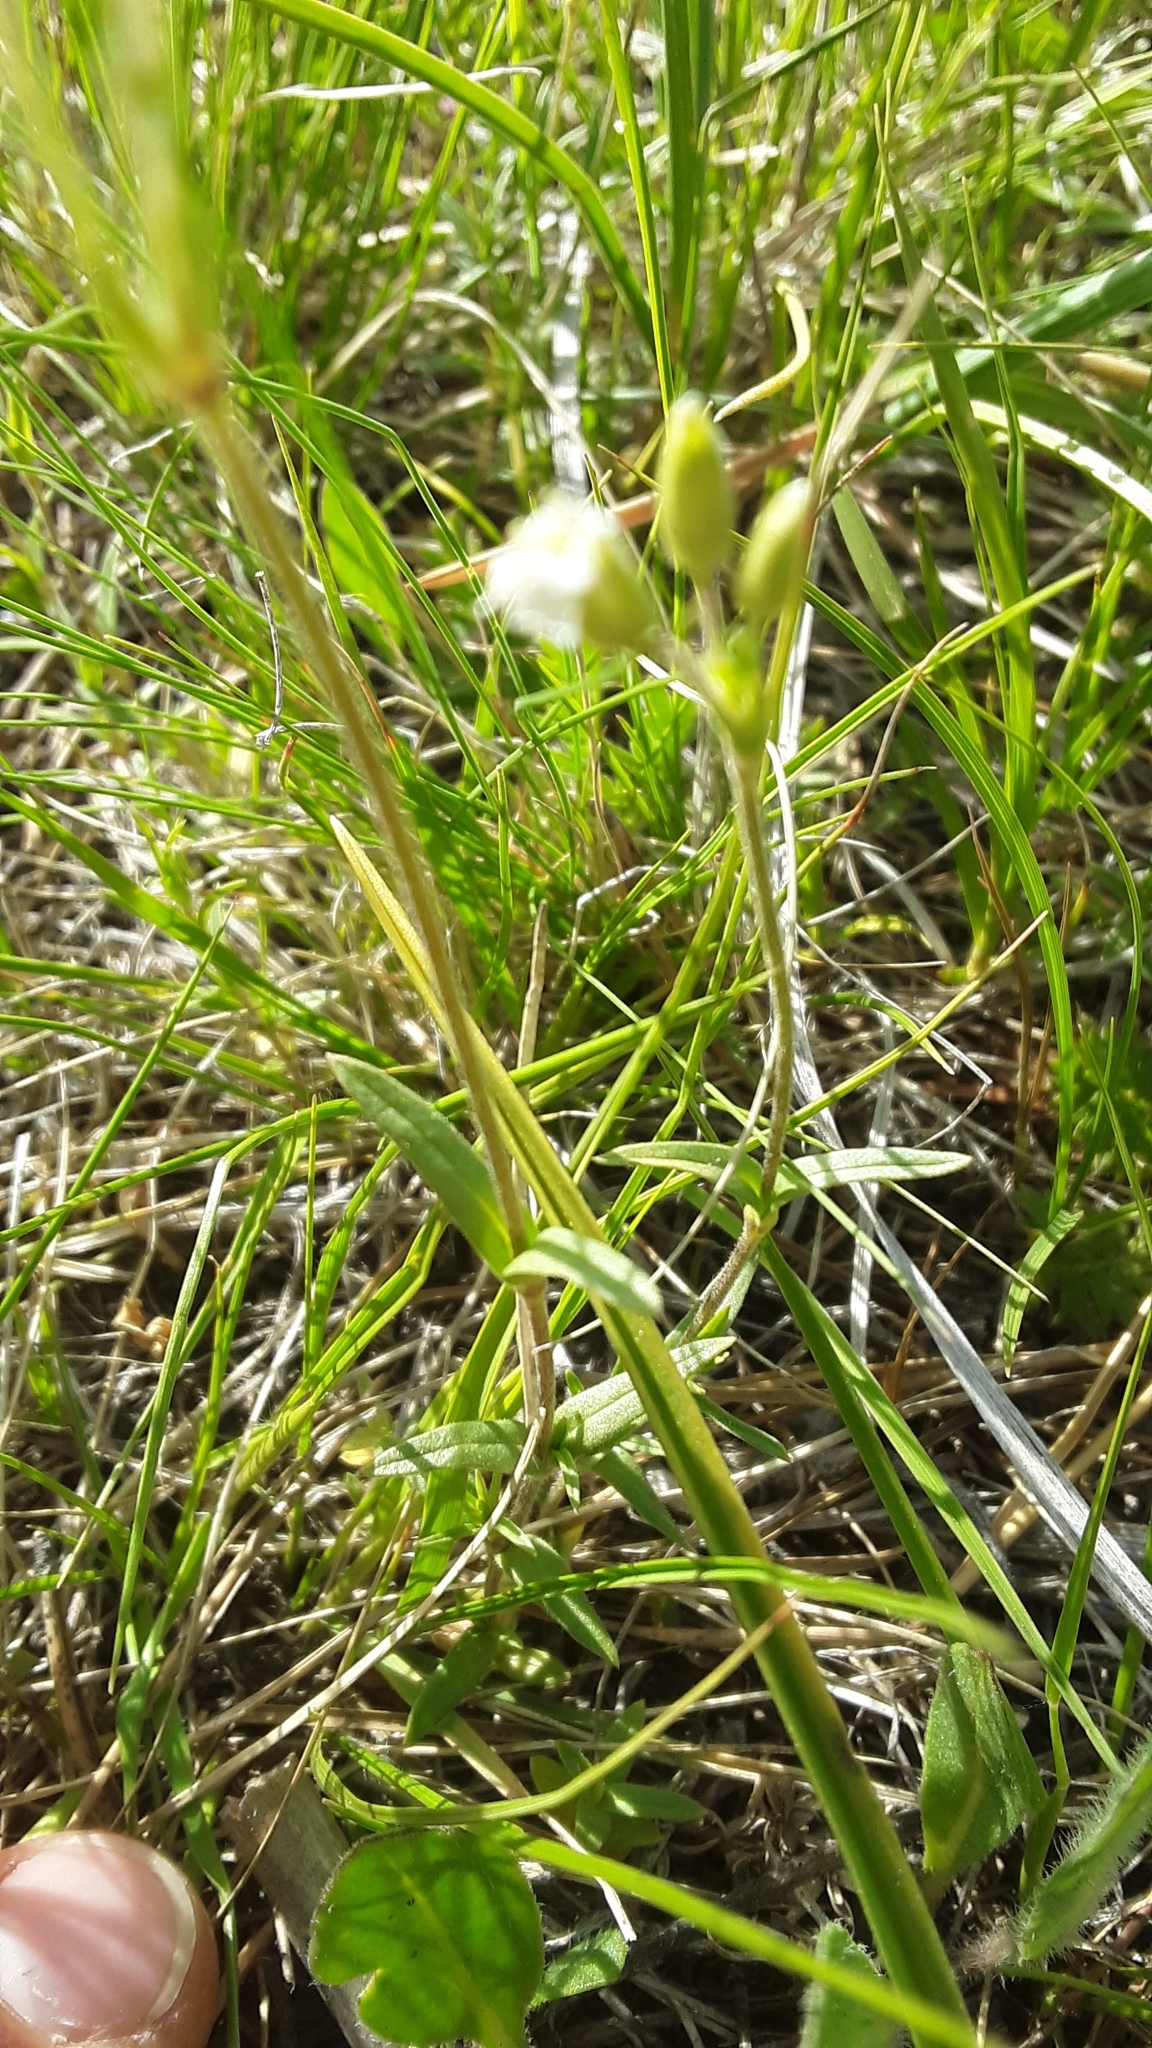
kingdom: Plantae
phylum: Tracheophyta
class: Magnoliopsida
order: Caryophyllales
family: Caryophyllaceae
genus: Cerastium
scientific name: Cerastium arvense
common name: Field mouse-ear
